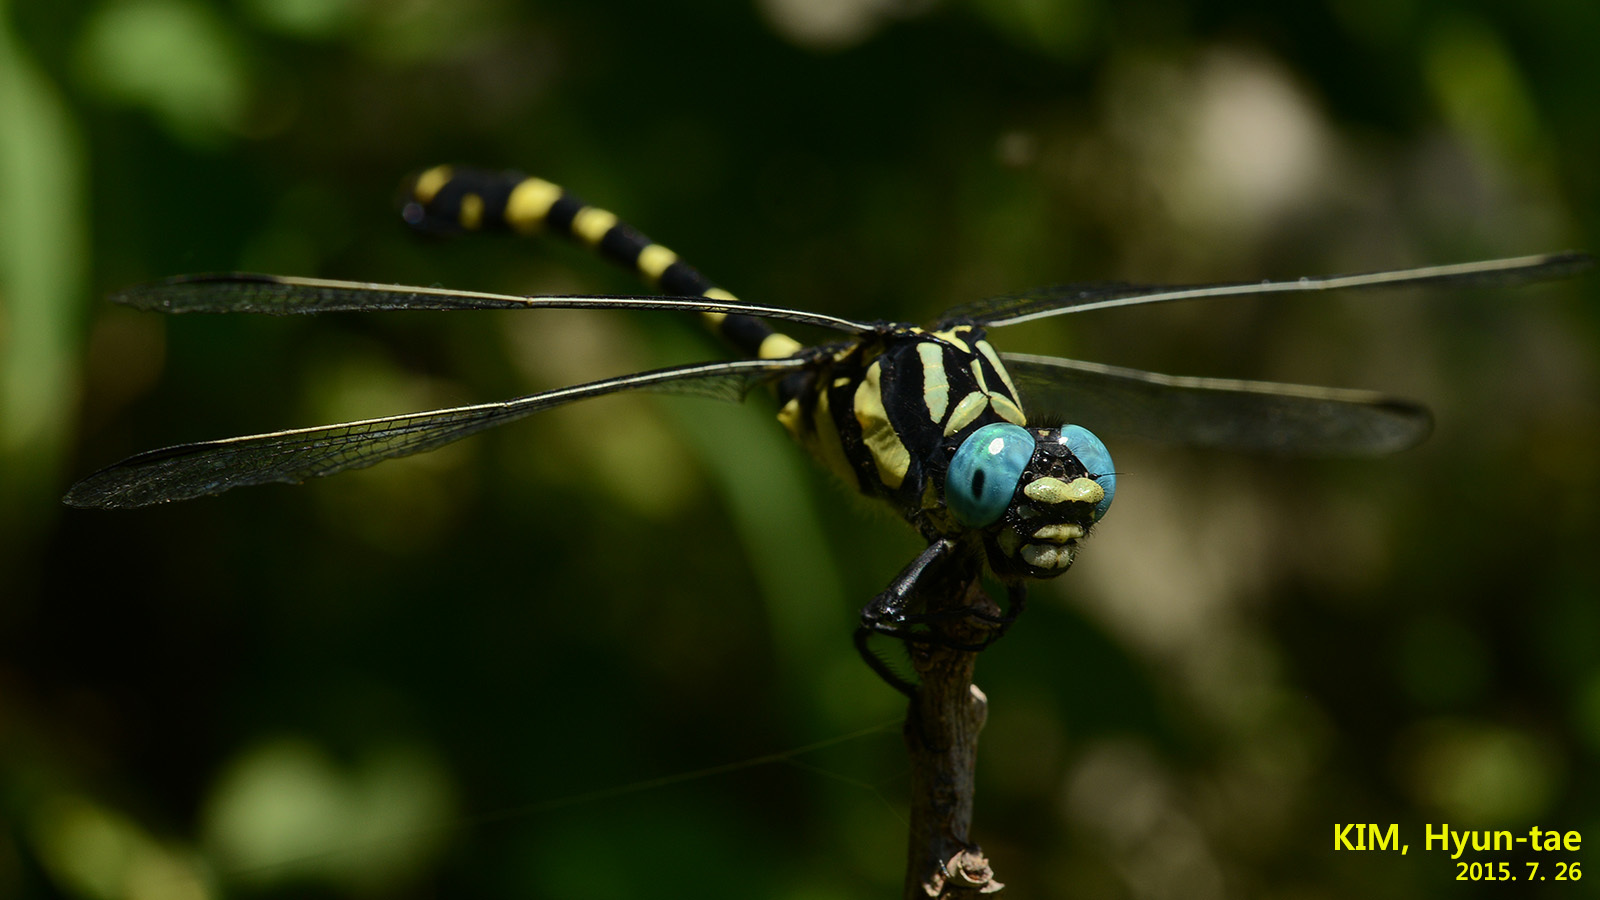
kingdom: Animalia
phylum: Arthropoda
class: Insecta
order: Odonata
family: Gomphidae
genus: Lamelligomphus
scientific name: Lamelligomphus ringens
